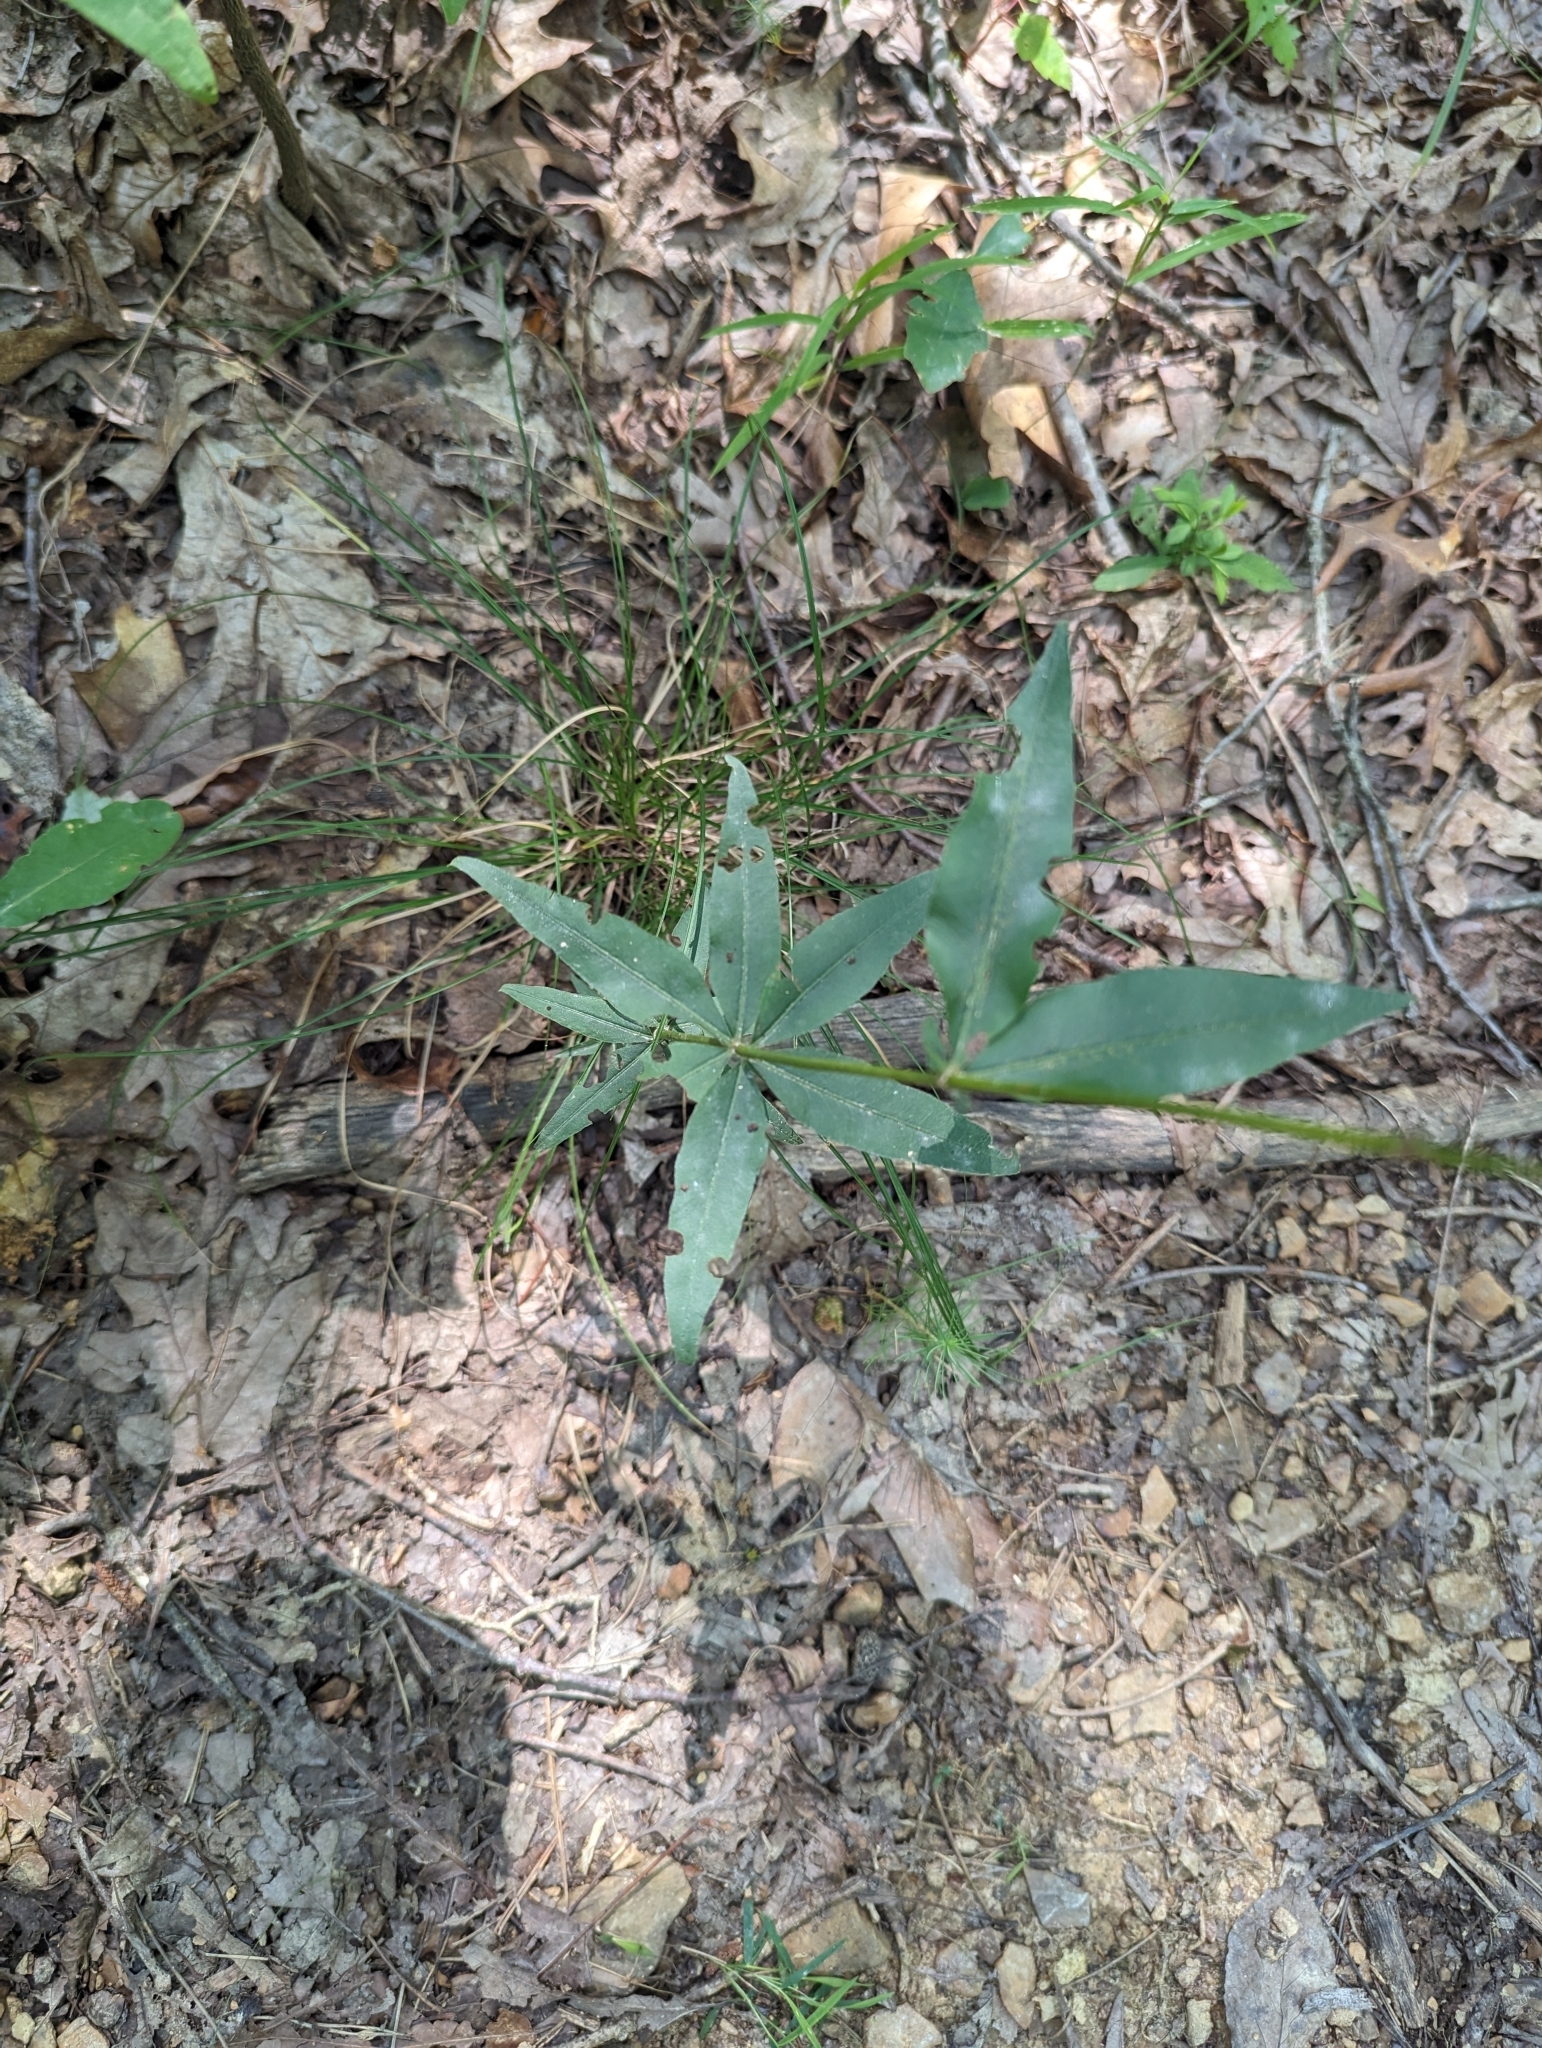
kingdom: Plantae
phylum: Tracheophyta
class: Magnoliopsida
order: Asterales
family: Asteraceae
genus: Coreopsis
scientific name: Coreopsis major
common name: Forest tickseed
